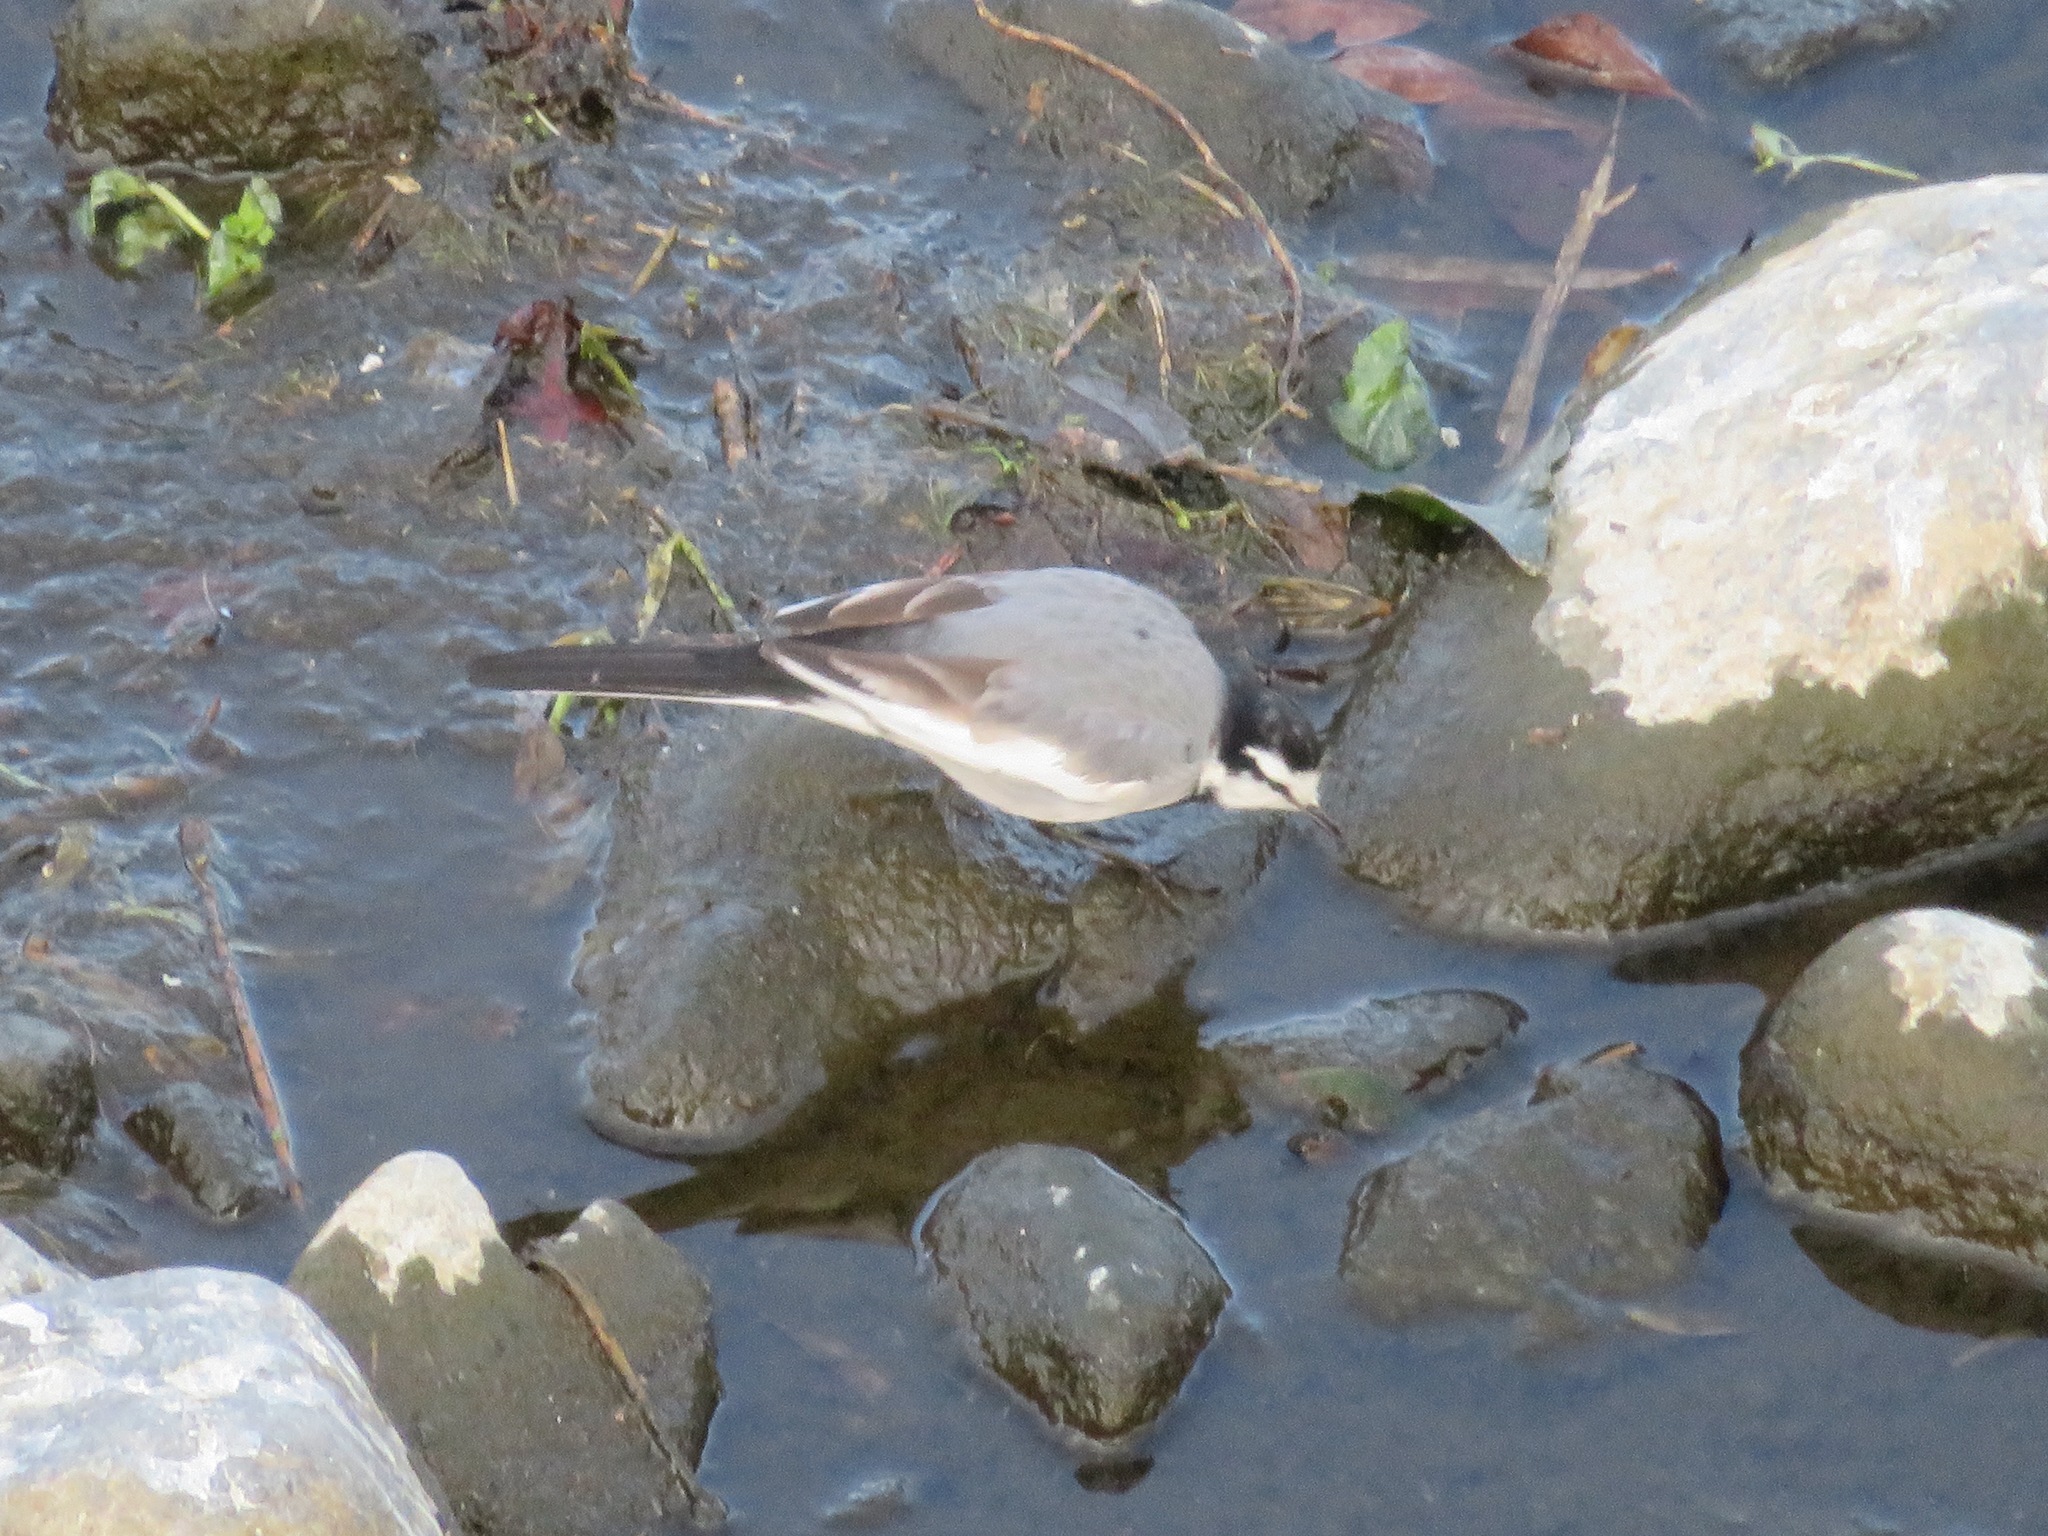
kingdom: Animalia
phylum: Chordata
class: Aves
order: Passeriformes
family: Motacillidae
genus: Motacilla
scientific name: Motacilla alba
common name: White wagtail
